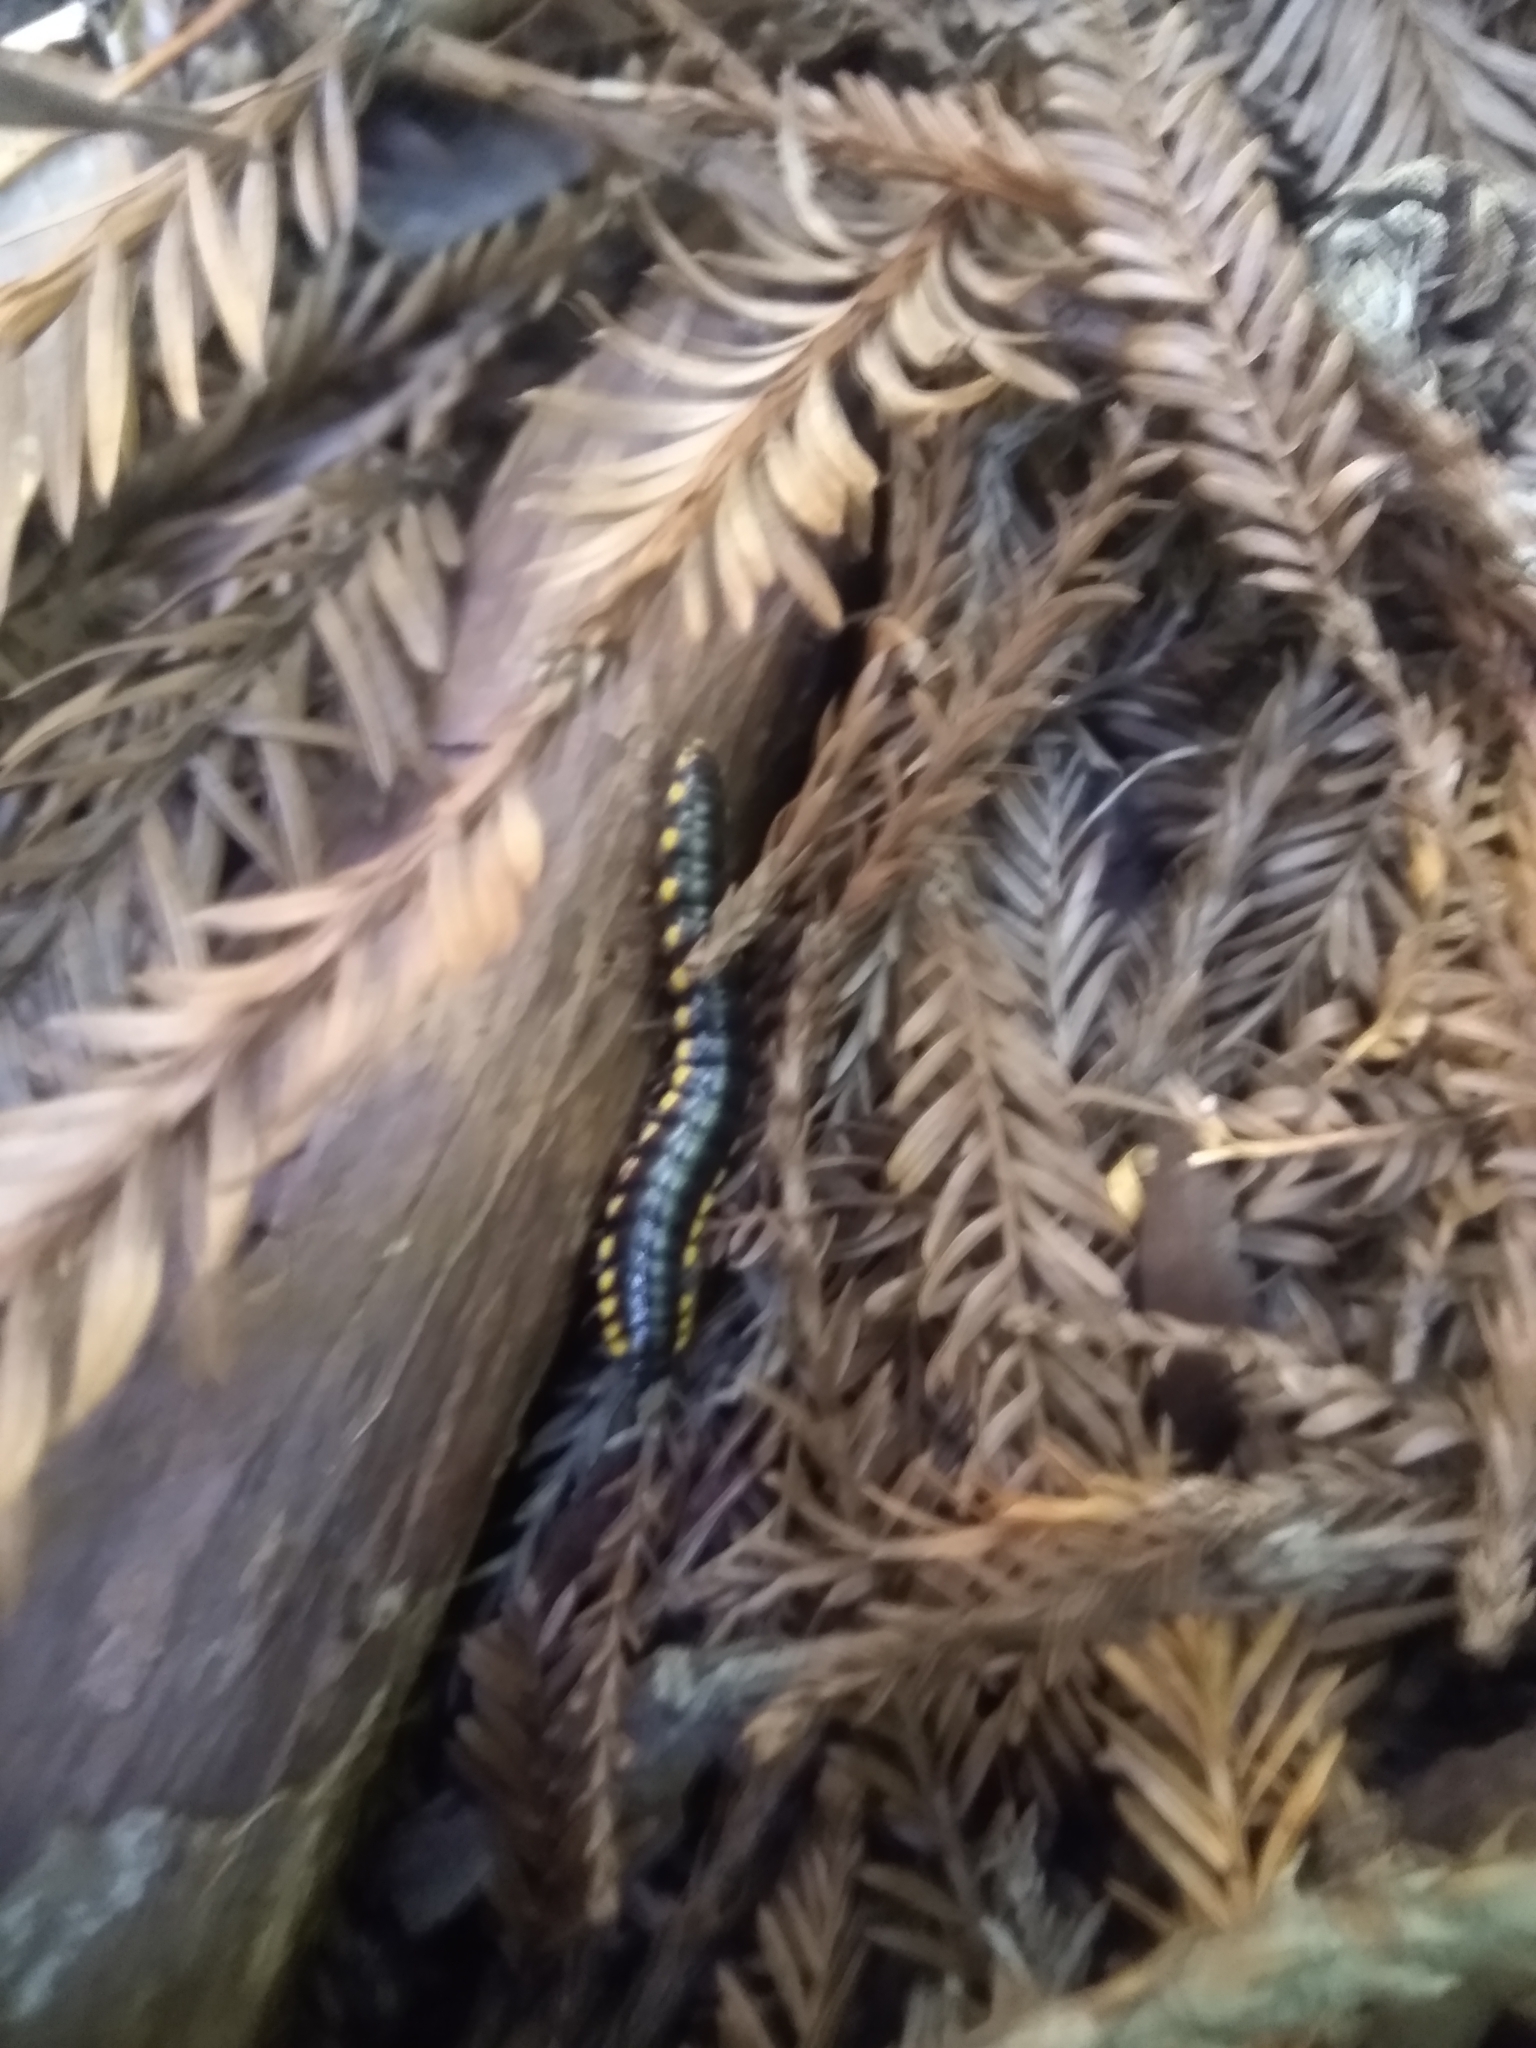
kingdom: Animalia
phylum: Arthropoda
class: Diplopoda
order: Polydesmida
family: Xystodesmidae
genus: Harpaphe
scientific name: Harpaphe haydeniana
